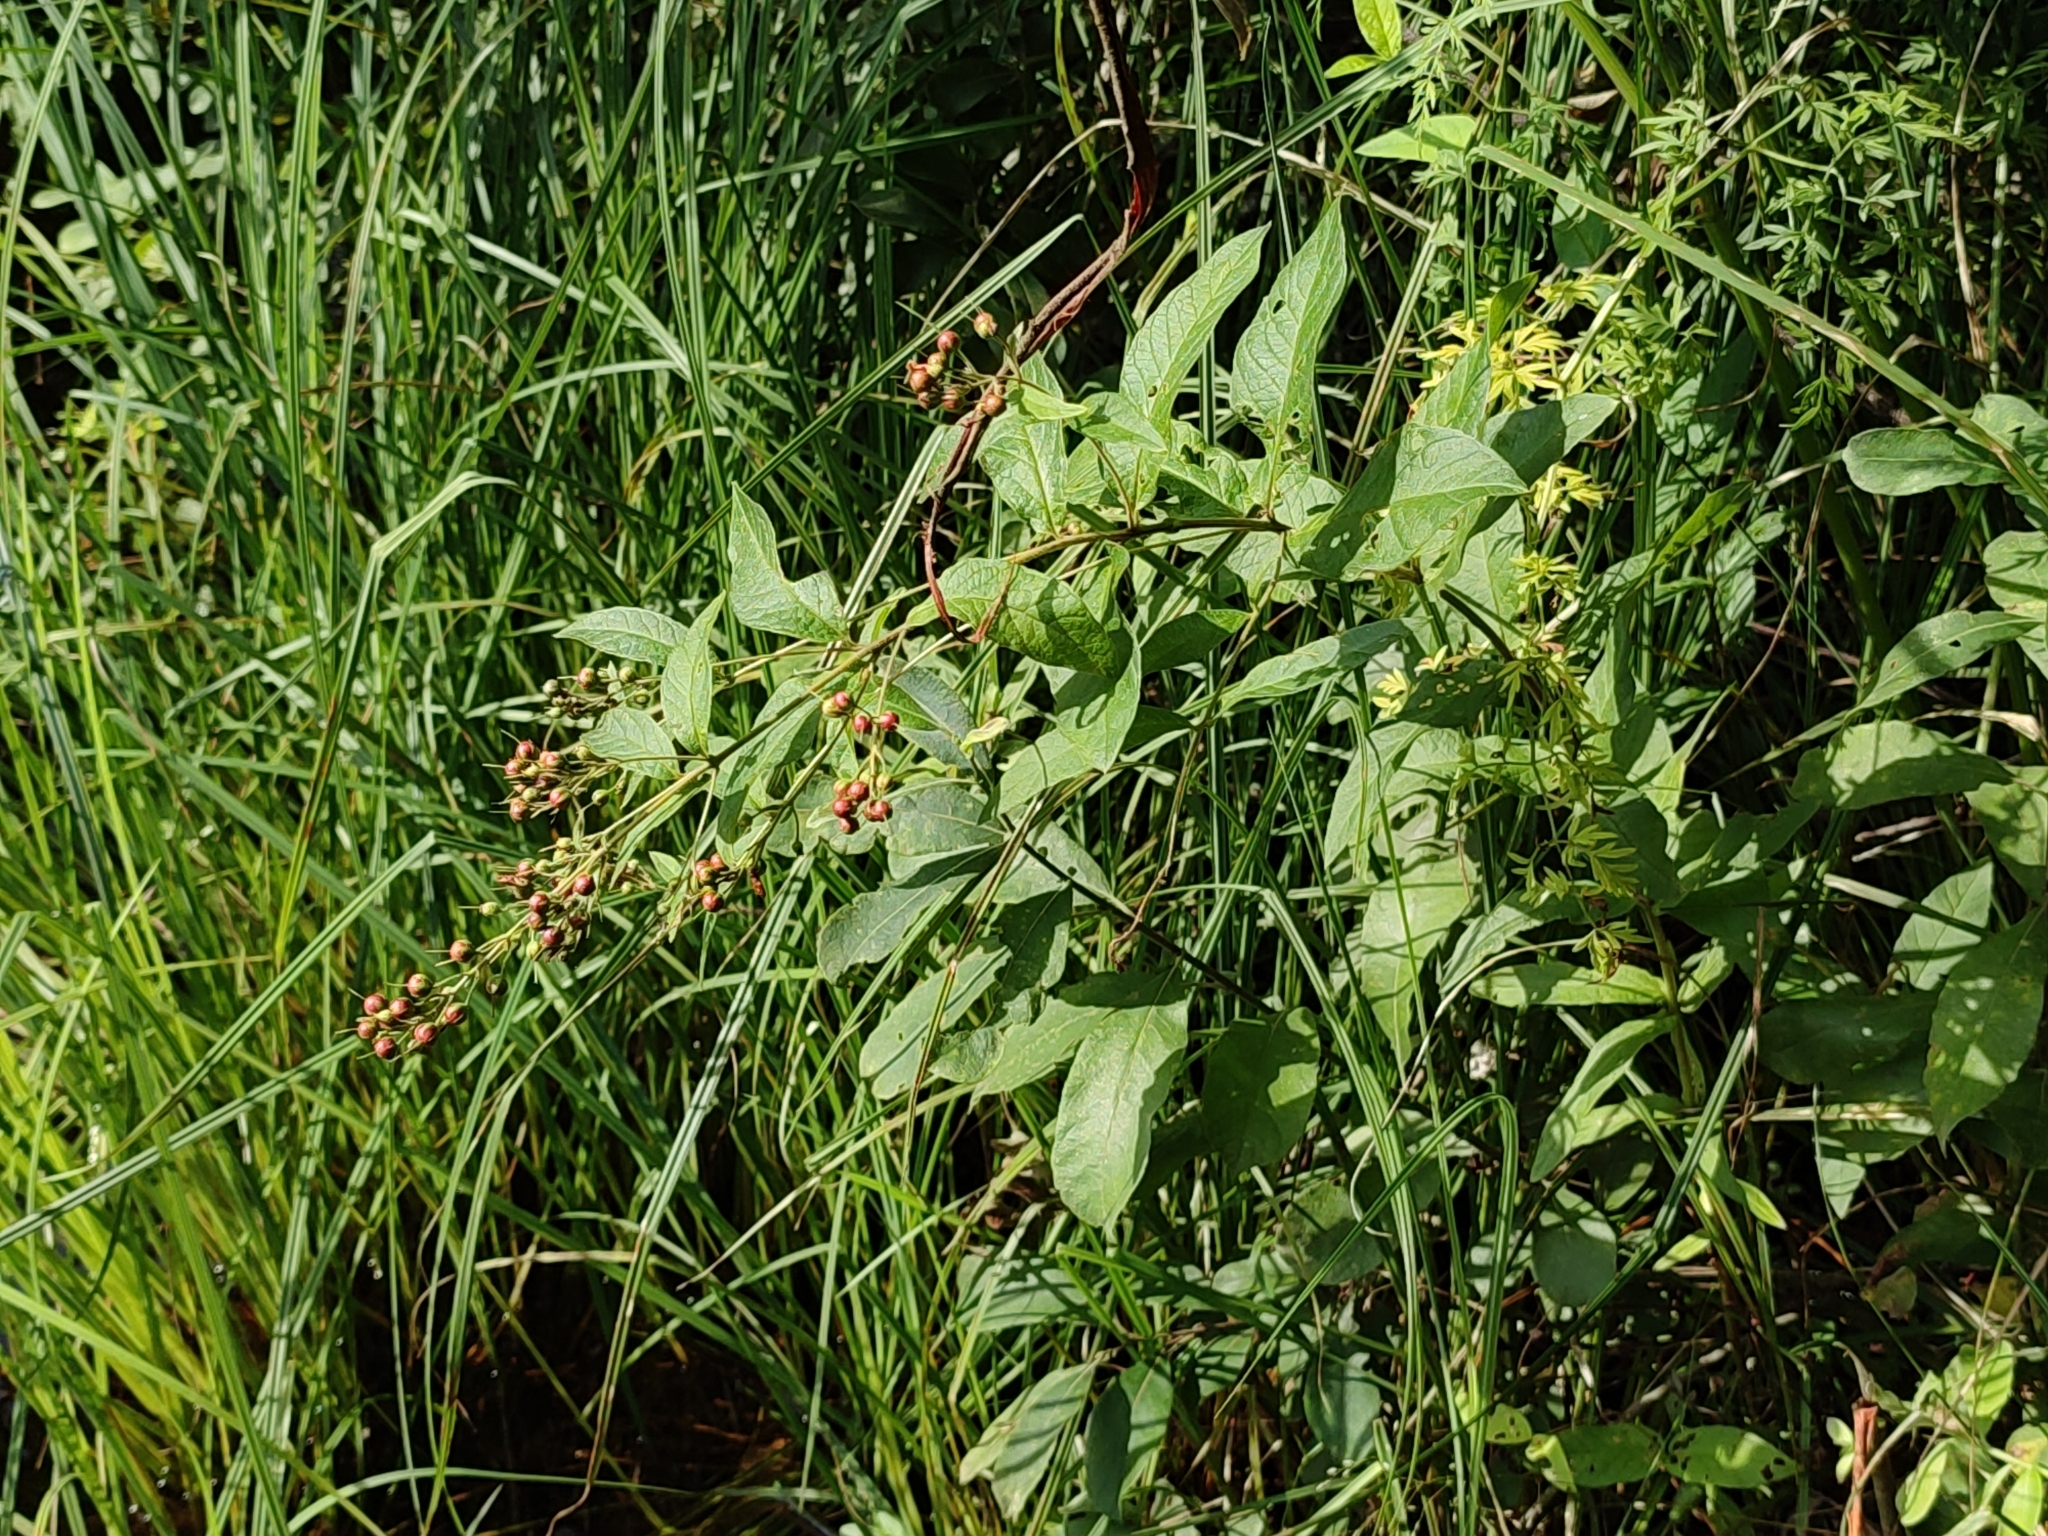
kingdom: Plantae
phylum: Tracheophyta
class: Magnoliopsida
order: Ericales
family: Primulaceae
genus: Lysimachia
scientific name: Lysimachia vulgaris
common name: Yellow loosestrife
